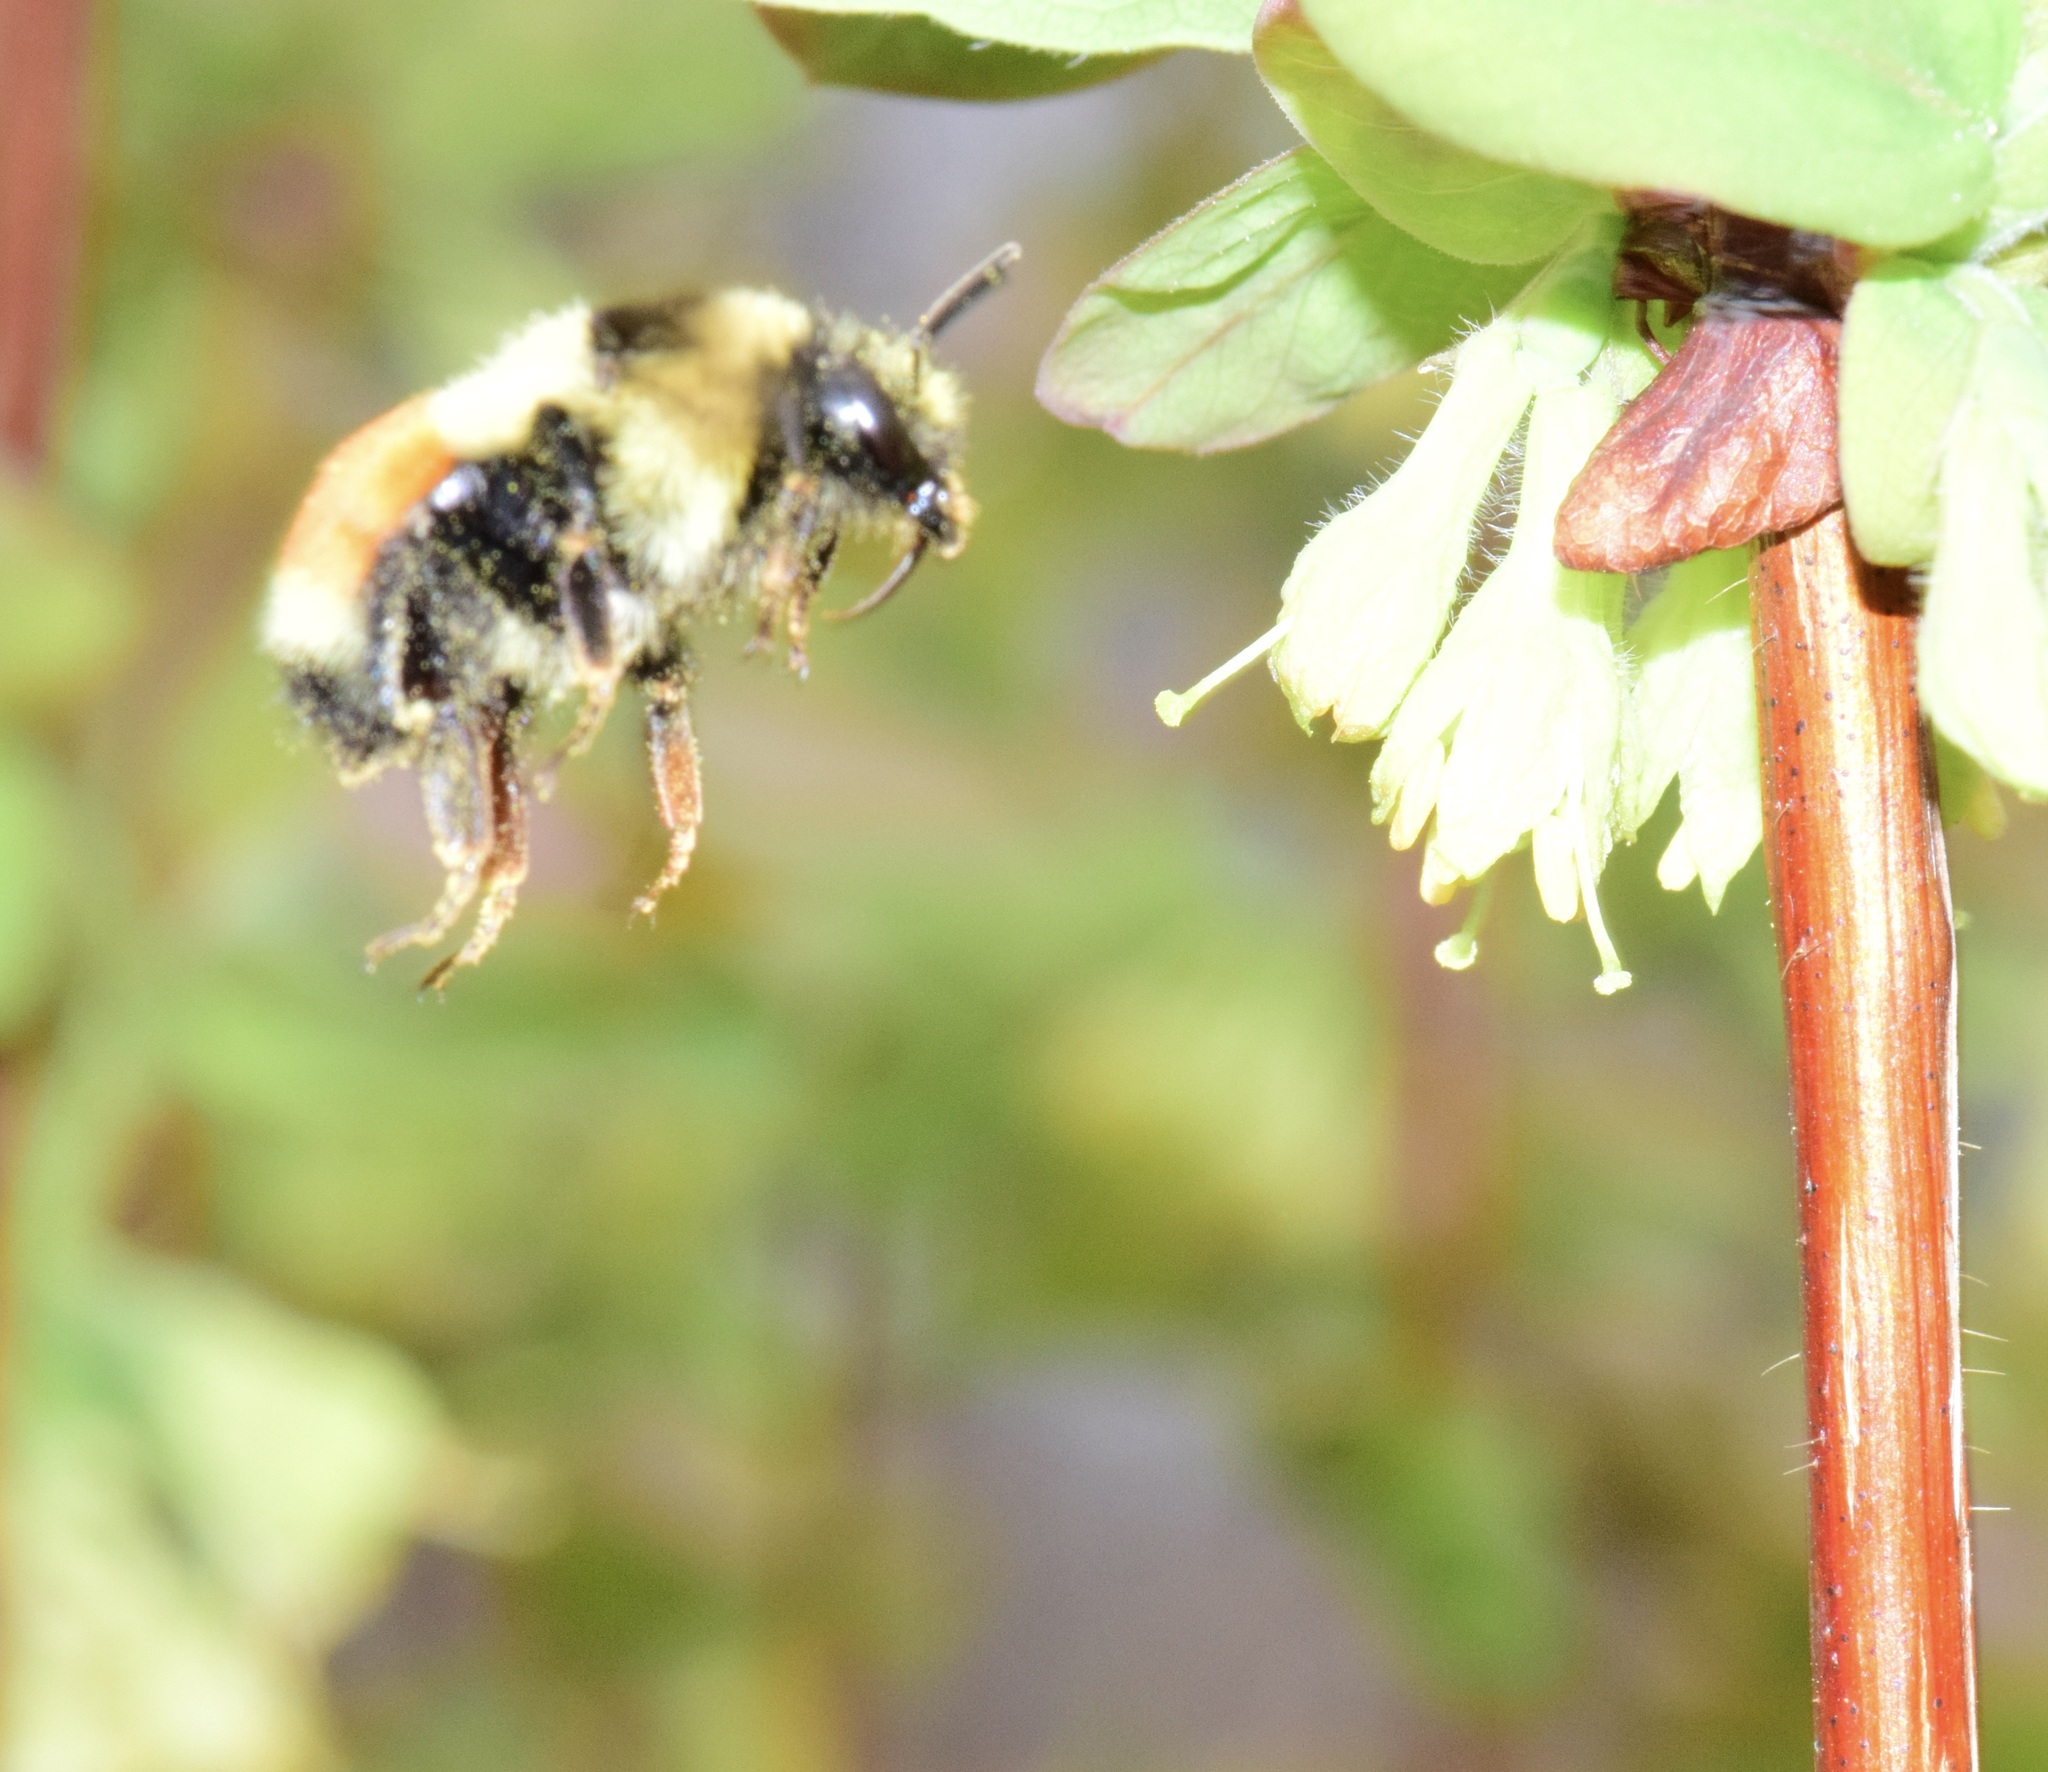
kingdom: Animalia
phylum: Arthropoda
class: Insecta
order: Hymenoptera
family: Apidae
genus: Bombus
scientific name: Bombus ternarius
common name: Tri-colored bumble bee
